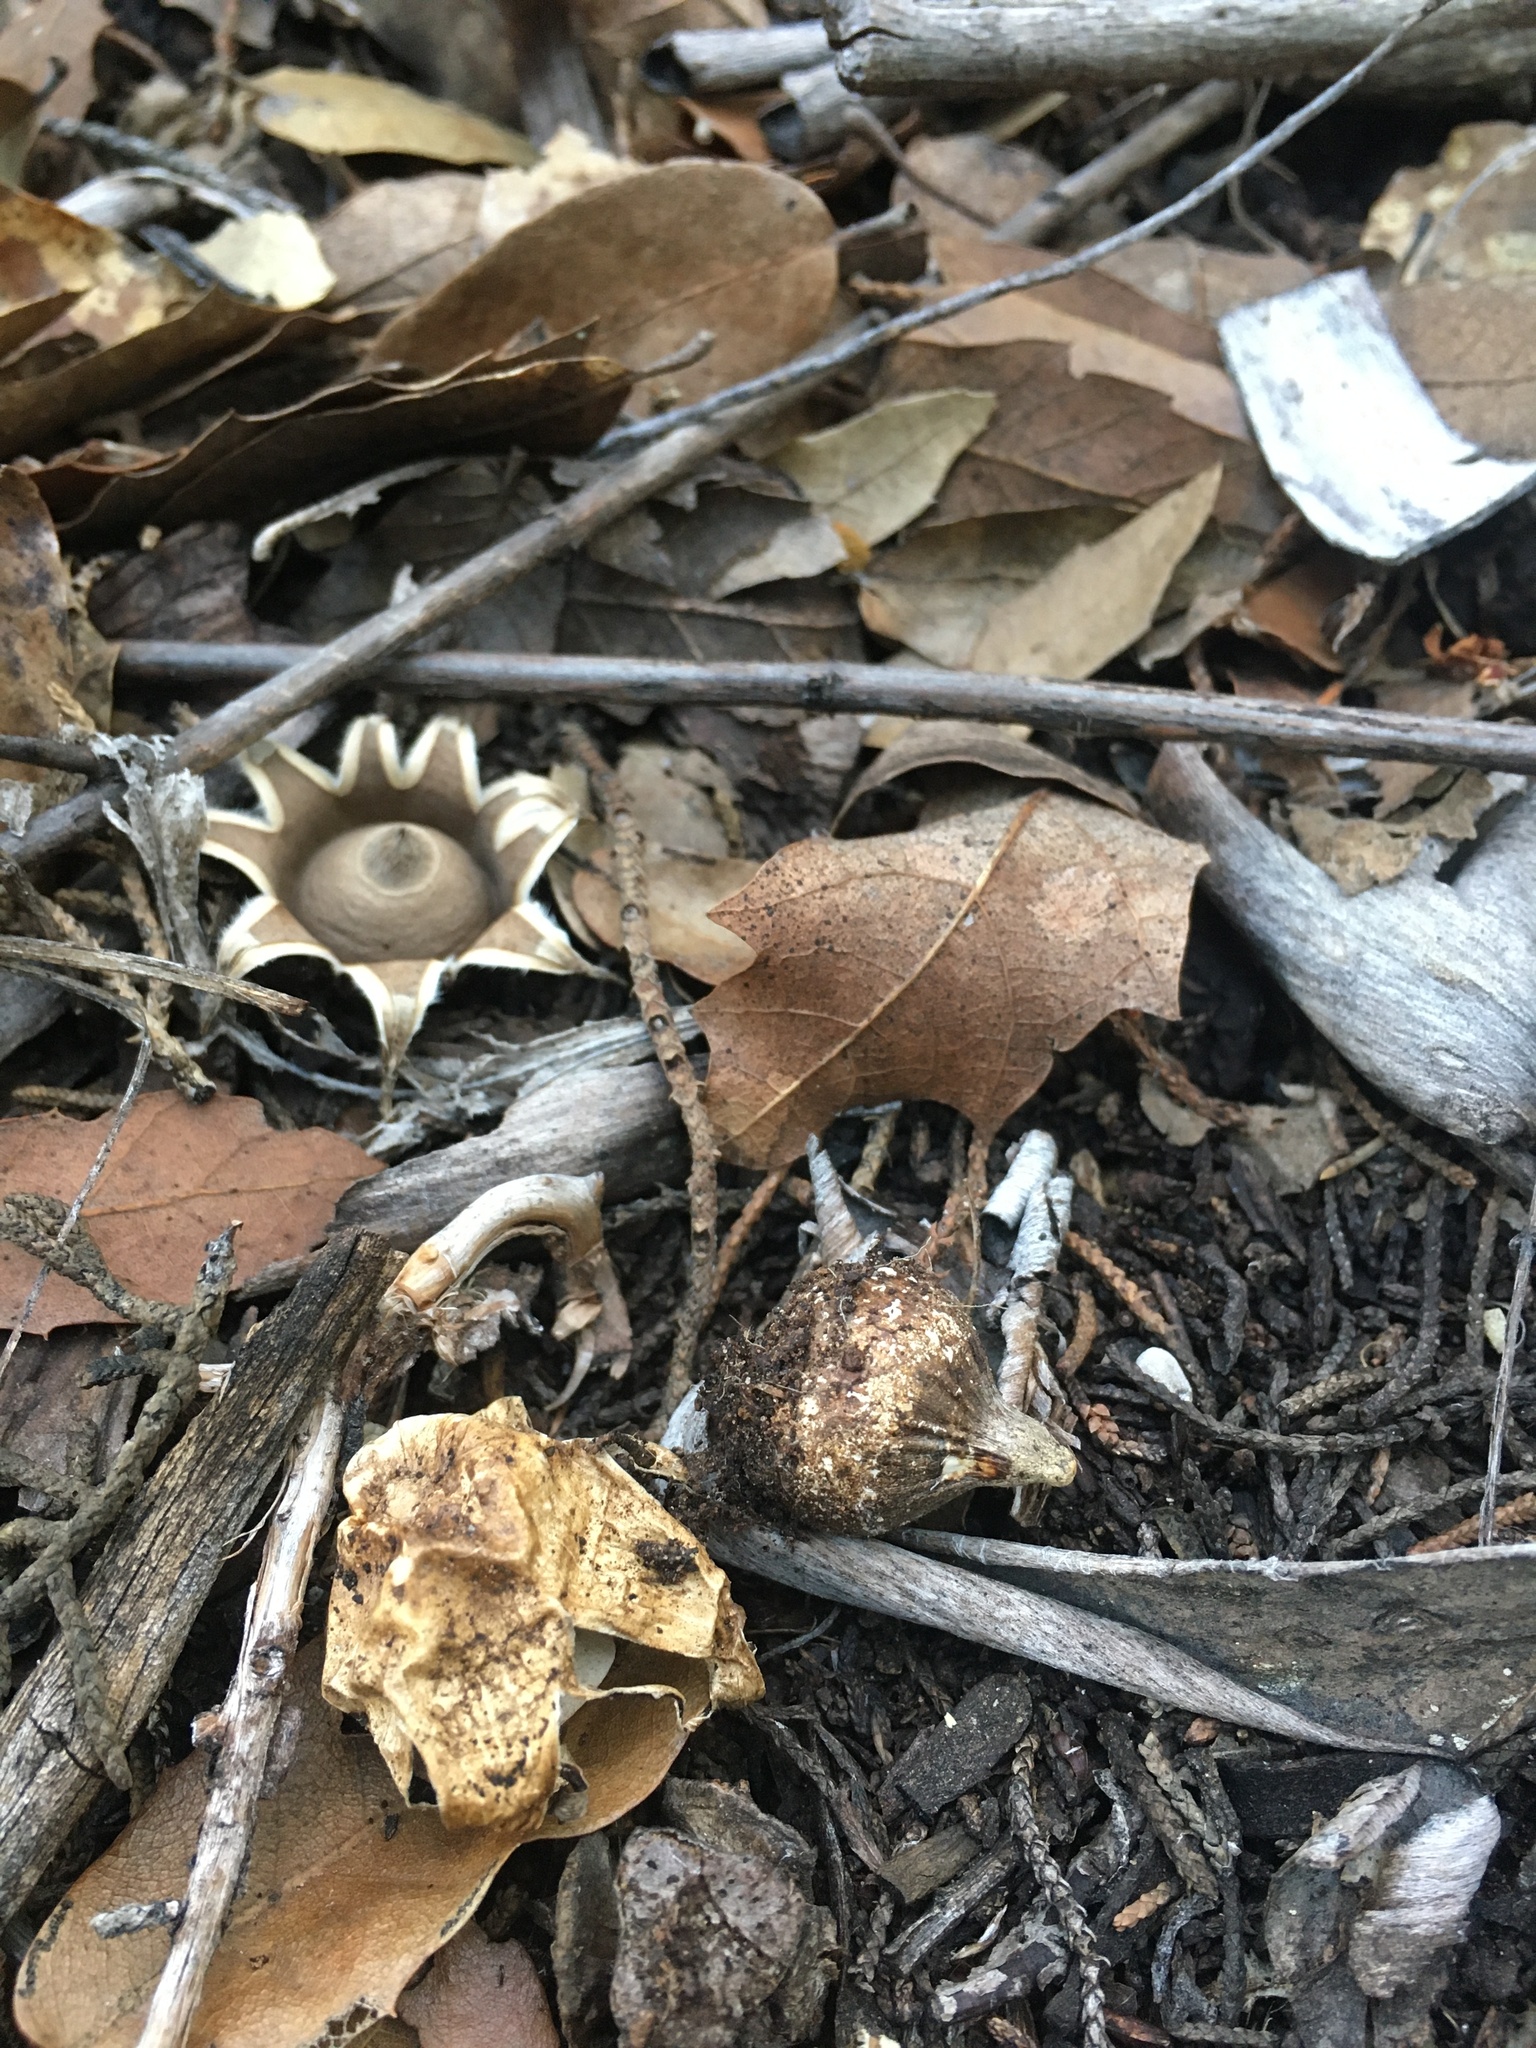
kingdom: Fungi
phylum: Basidiomycota
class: Agaricomycetes
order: Geastrales
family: Geastraceae
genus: Geastrum
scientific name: Geastrum fimbriatum
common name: Sessile earthstar
